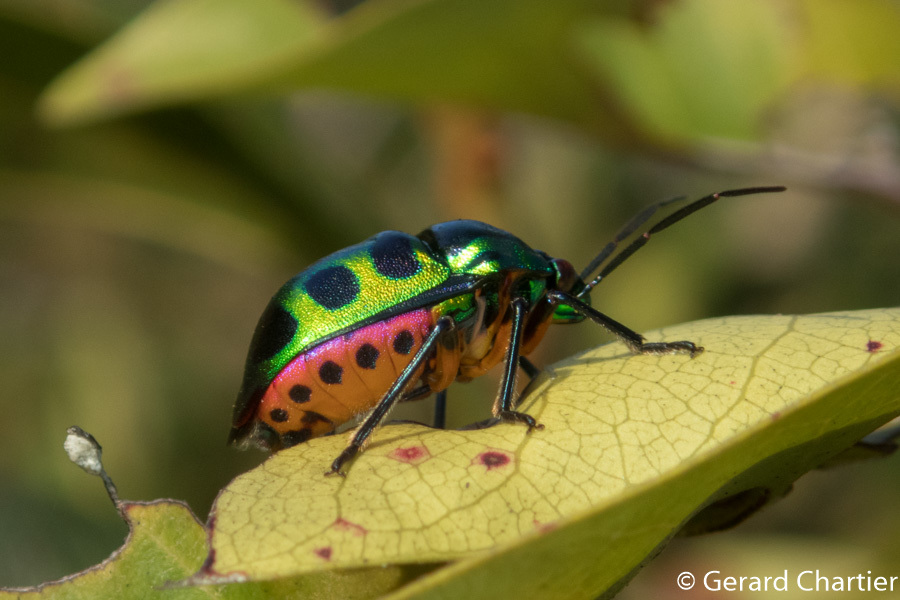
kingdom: Animalia
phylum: Arthropoda
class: Insecta
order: Hemiptera
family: Scutelleridae
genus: Chrysocoris
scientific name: Chrysocoris stollii
